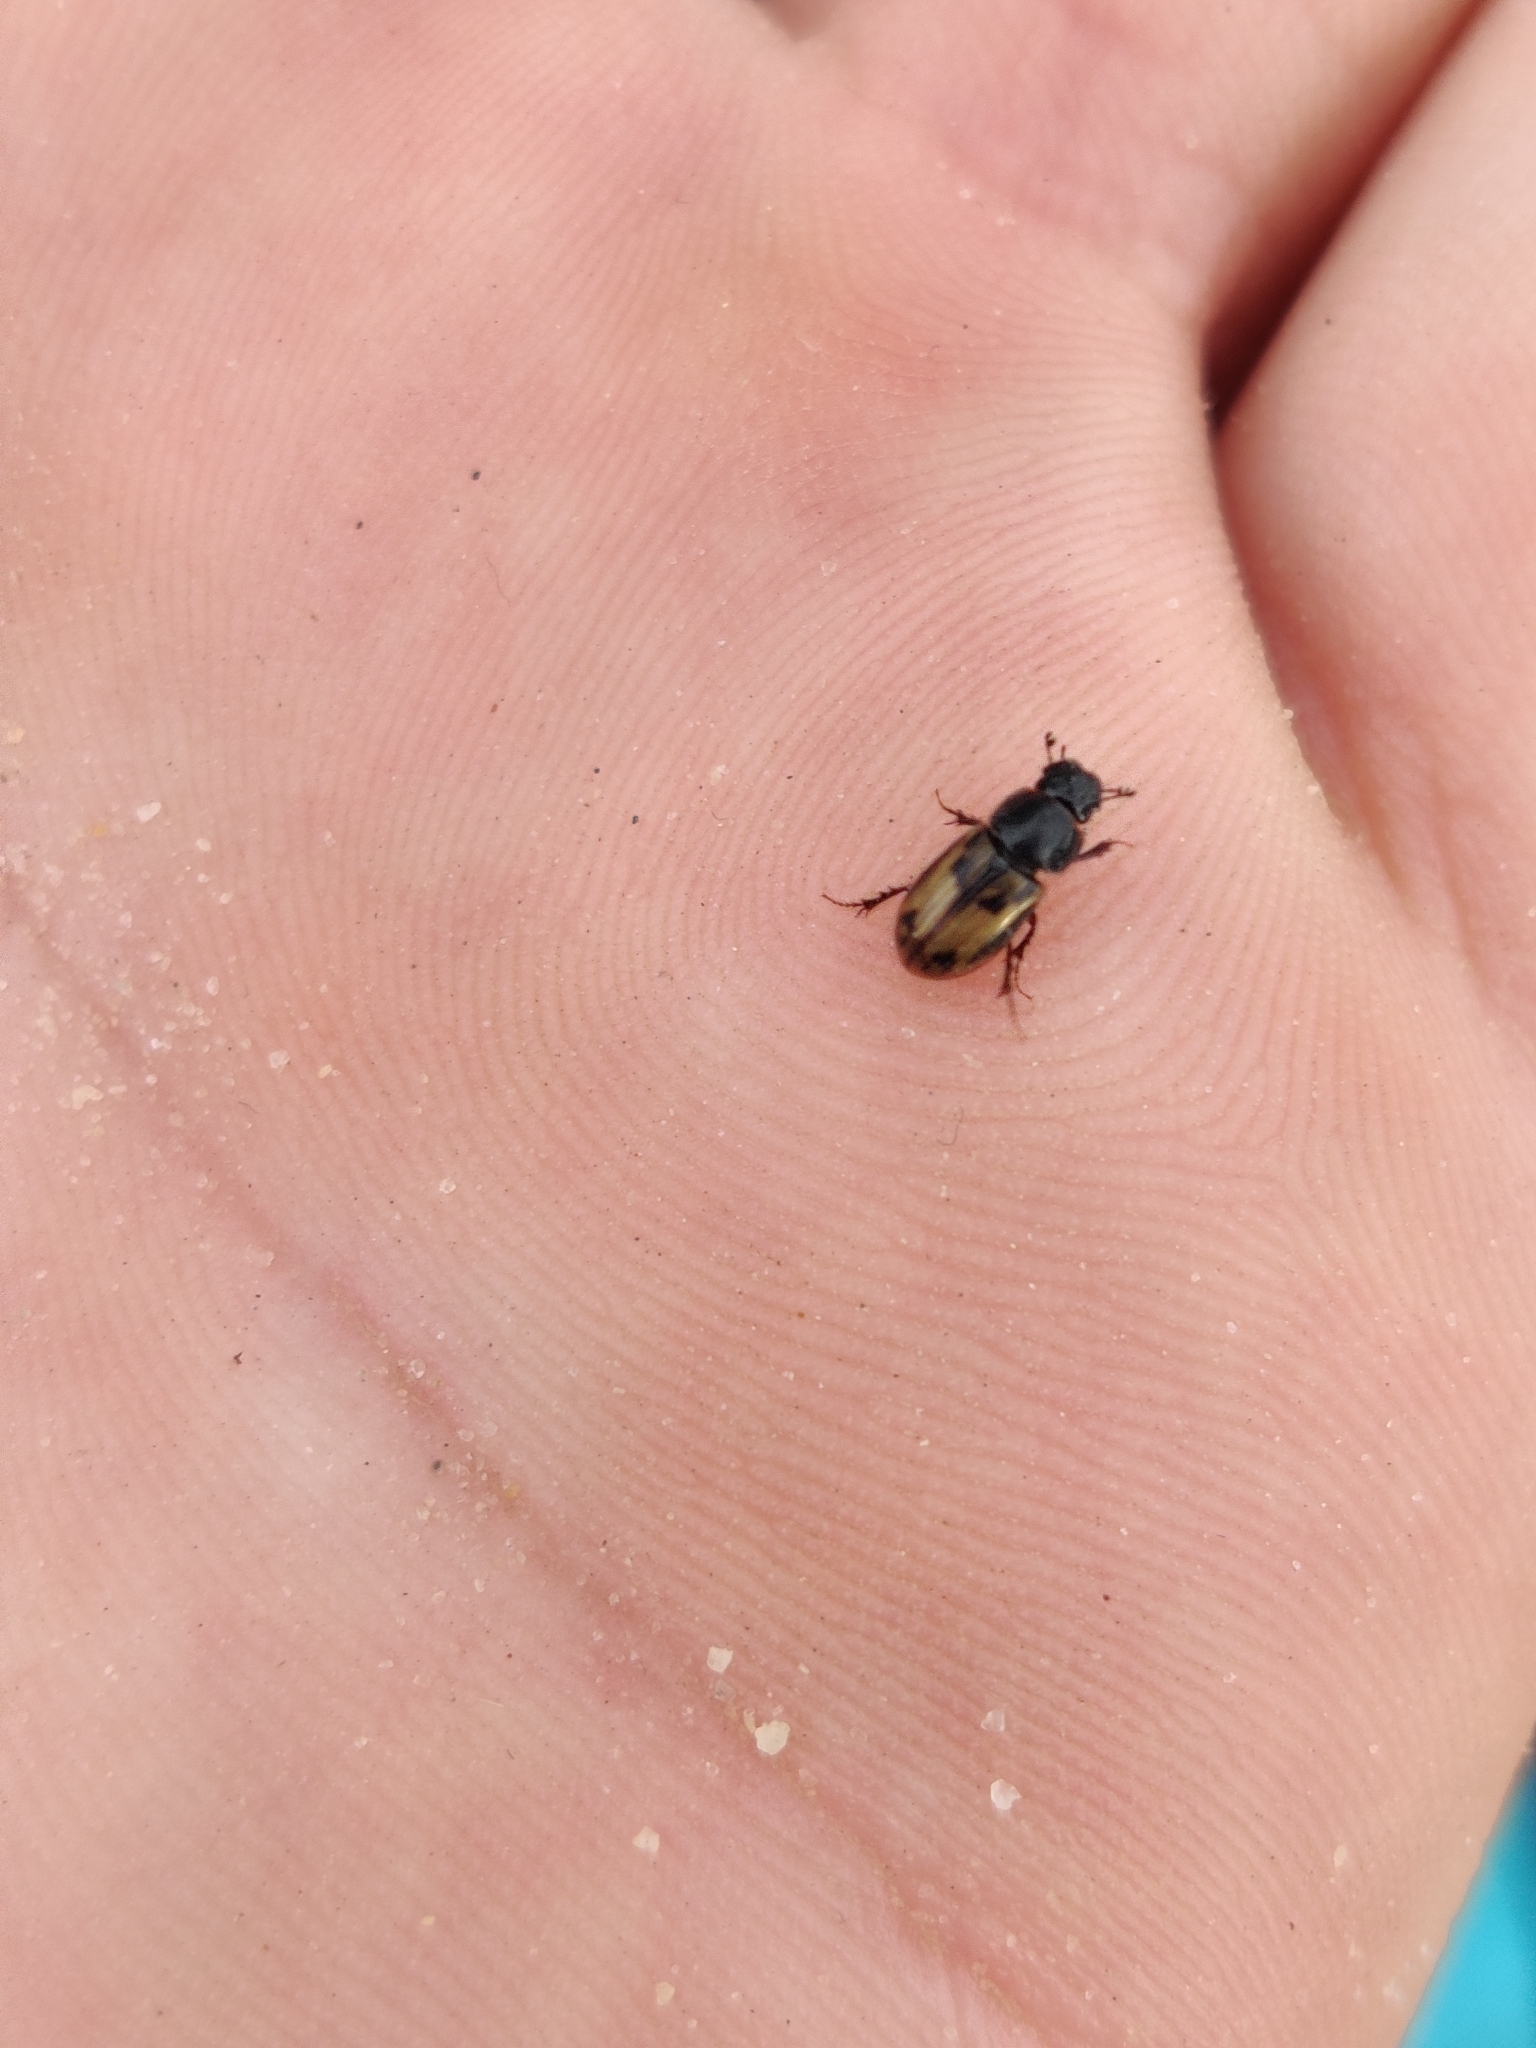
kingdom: Animalia
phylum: Arthropoda
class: Insecta
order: Coleoptera
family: Scarabaeidae
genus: Chilothorax
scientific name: Chilothorax distinctus
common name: Maculated dung beetle
